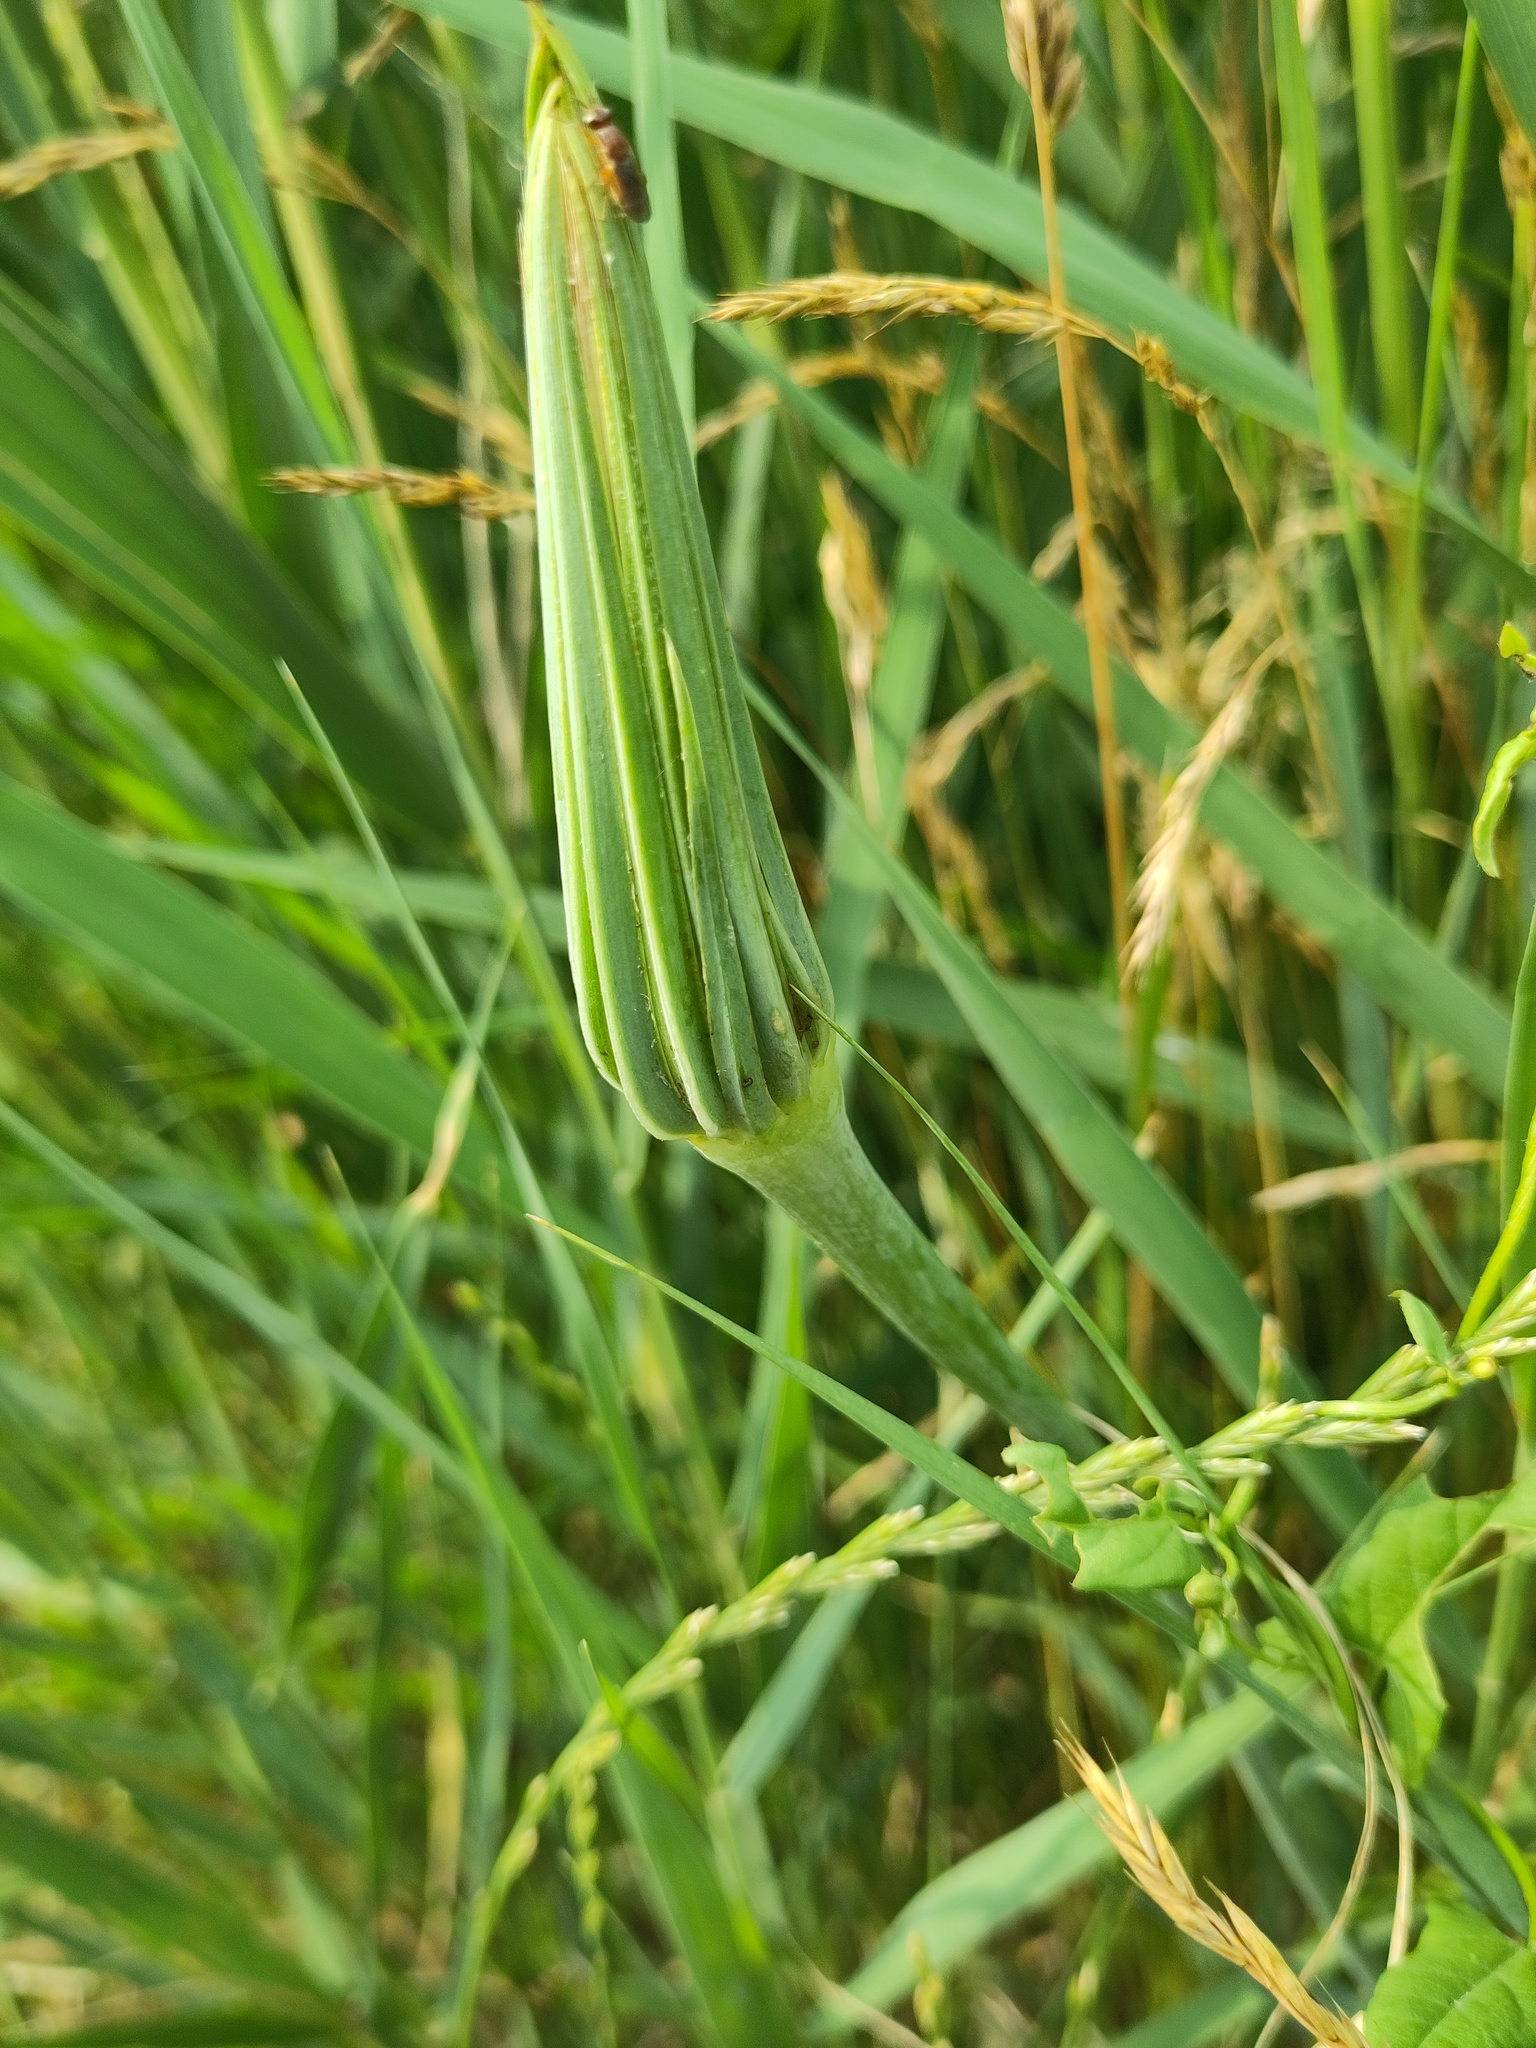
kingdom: Plantae
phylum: Tracheophyta
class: Magnoliopsida
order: Asterales
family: Asteraceae
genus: Tragopogon
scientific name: Tragopogon dubius
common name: Yellow salsify
